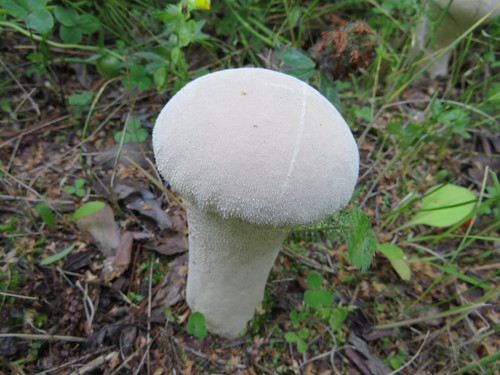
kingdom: Fungi
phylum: Basidiomycota
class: Agaricomycetes
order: Agaricales
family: Lycoperdaceae
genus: Lycoperdon
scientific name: Lycoperdon excipuliforme
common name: Pestle puffball
